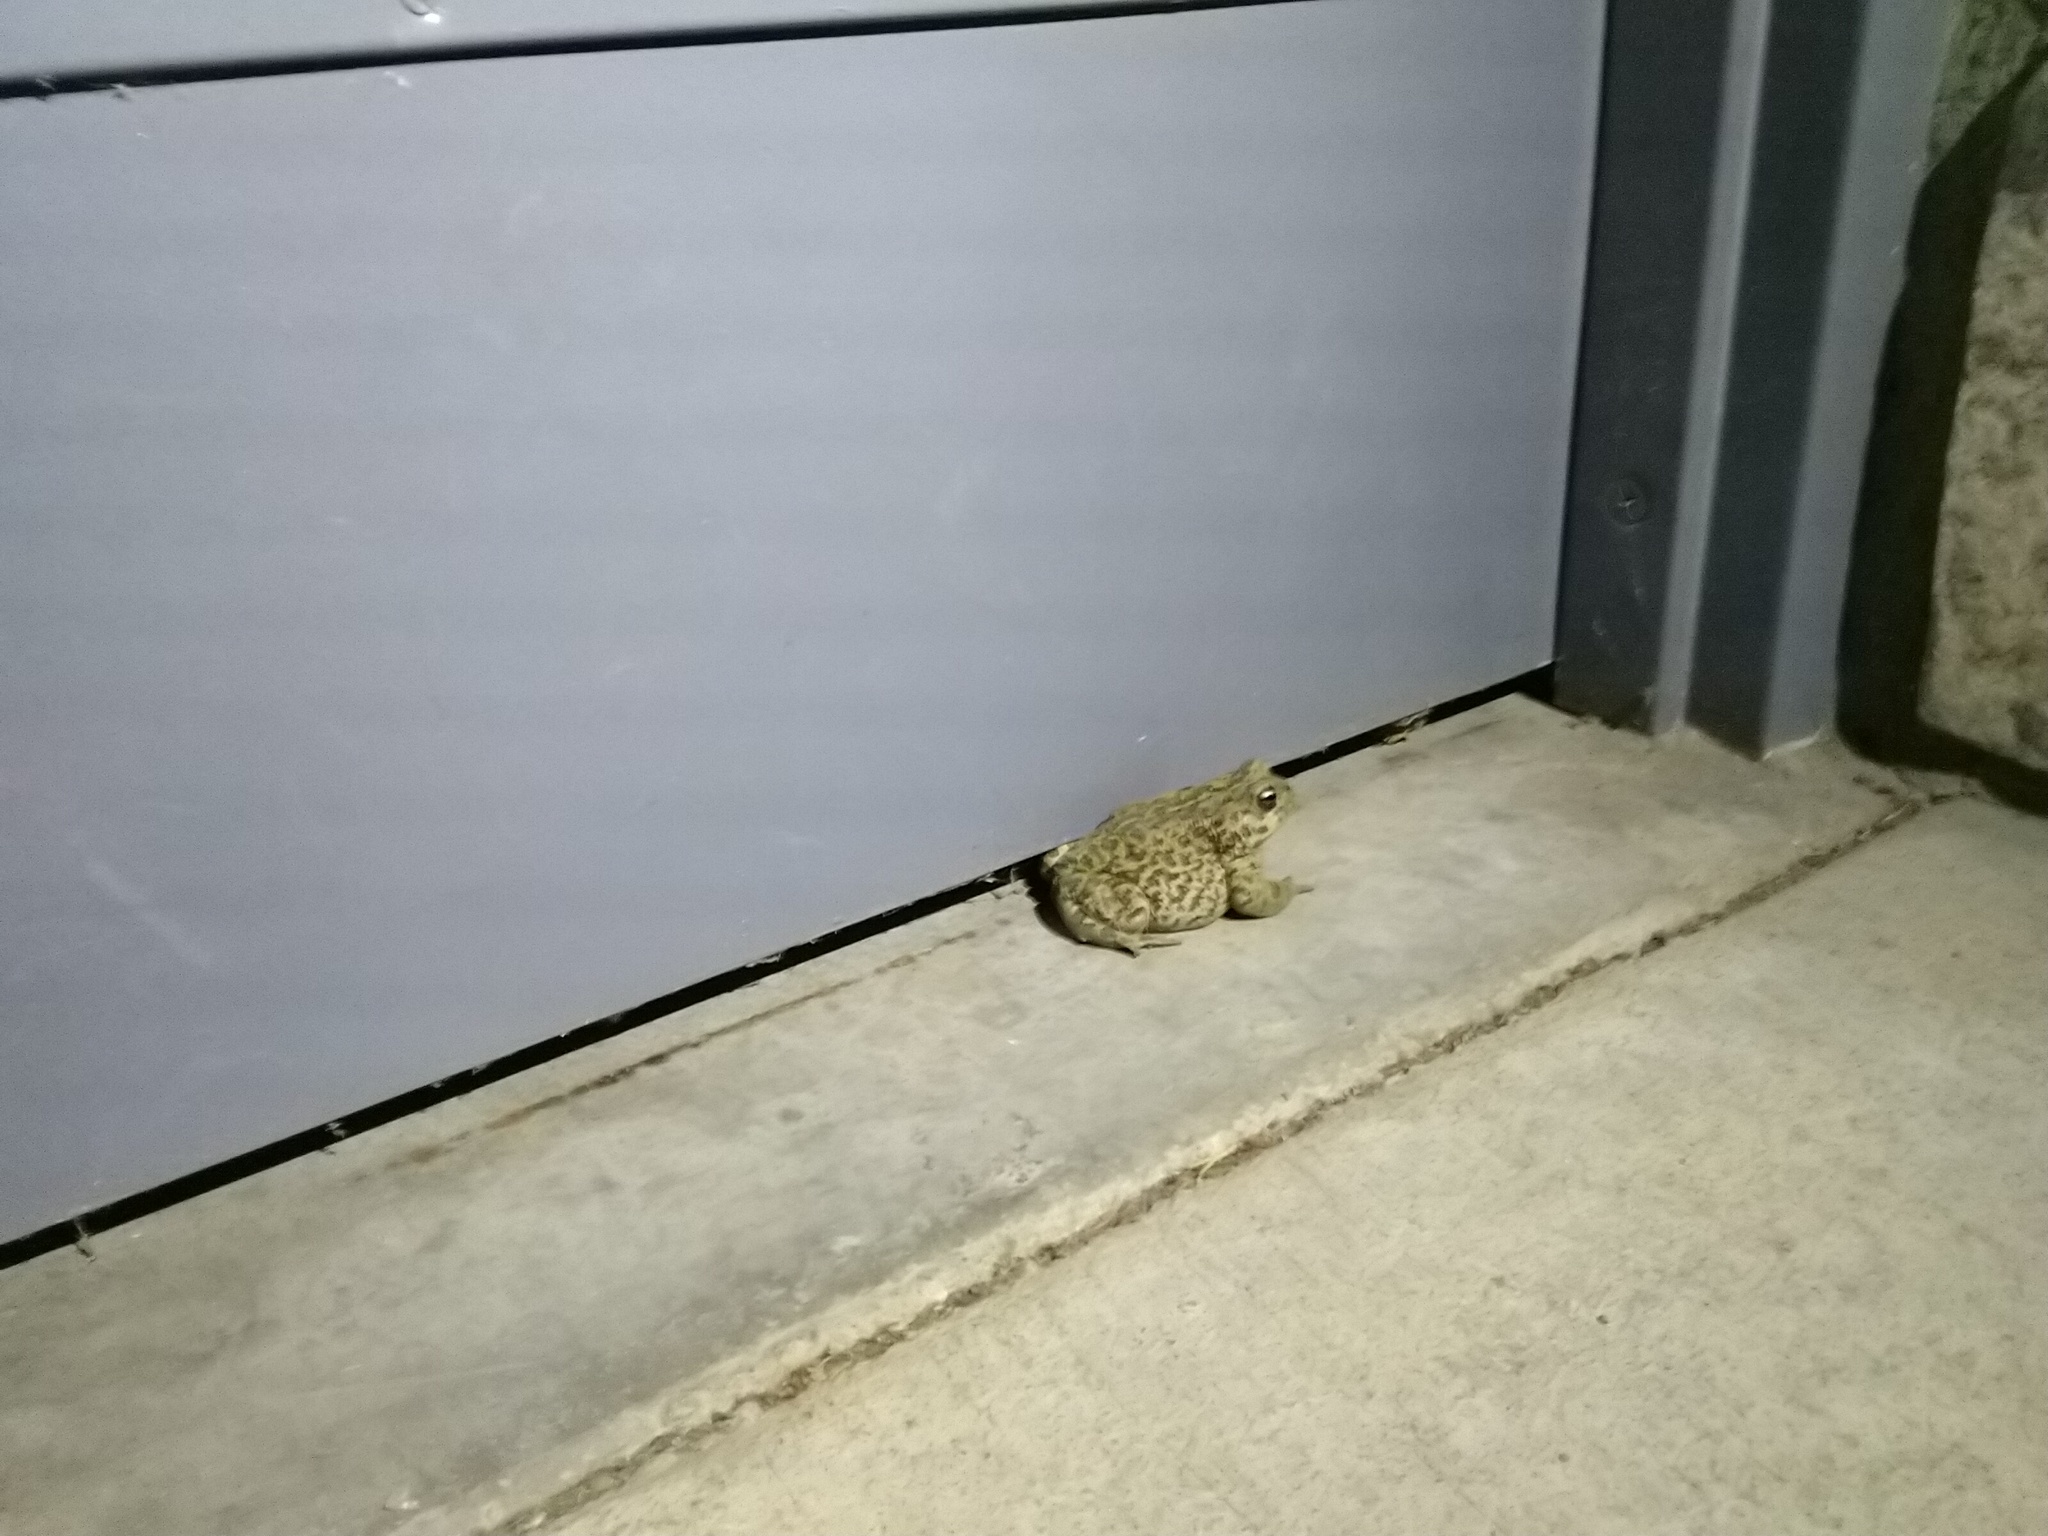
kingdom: Animalia
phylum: Chordata
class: Amphibia
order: Anura
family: Bufonidae
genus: Anaxyrus
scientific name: Anaxyrus boreas
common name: Western toad
